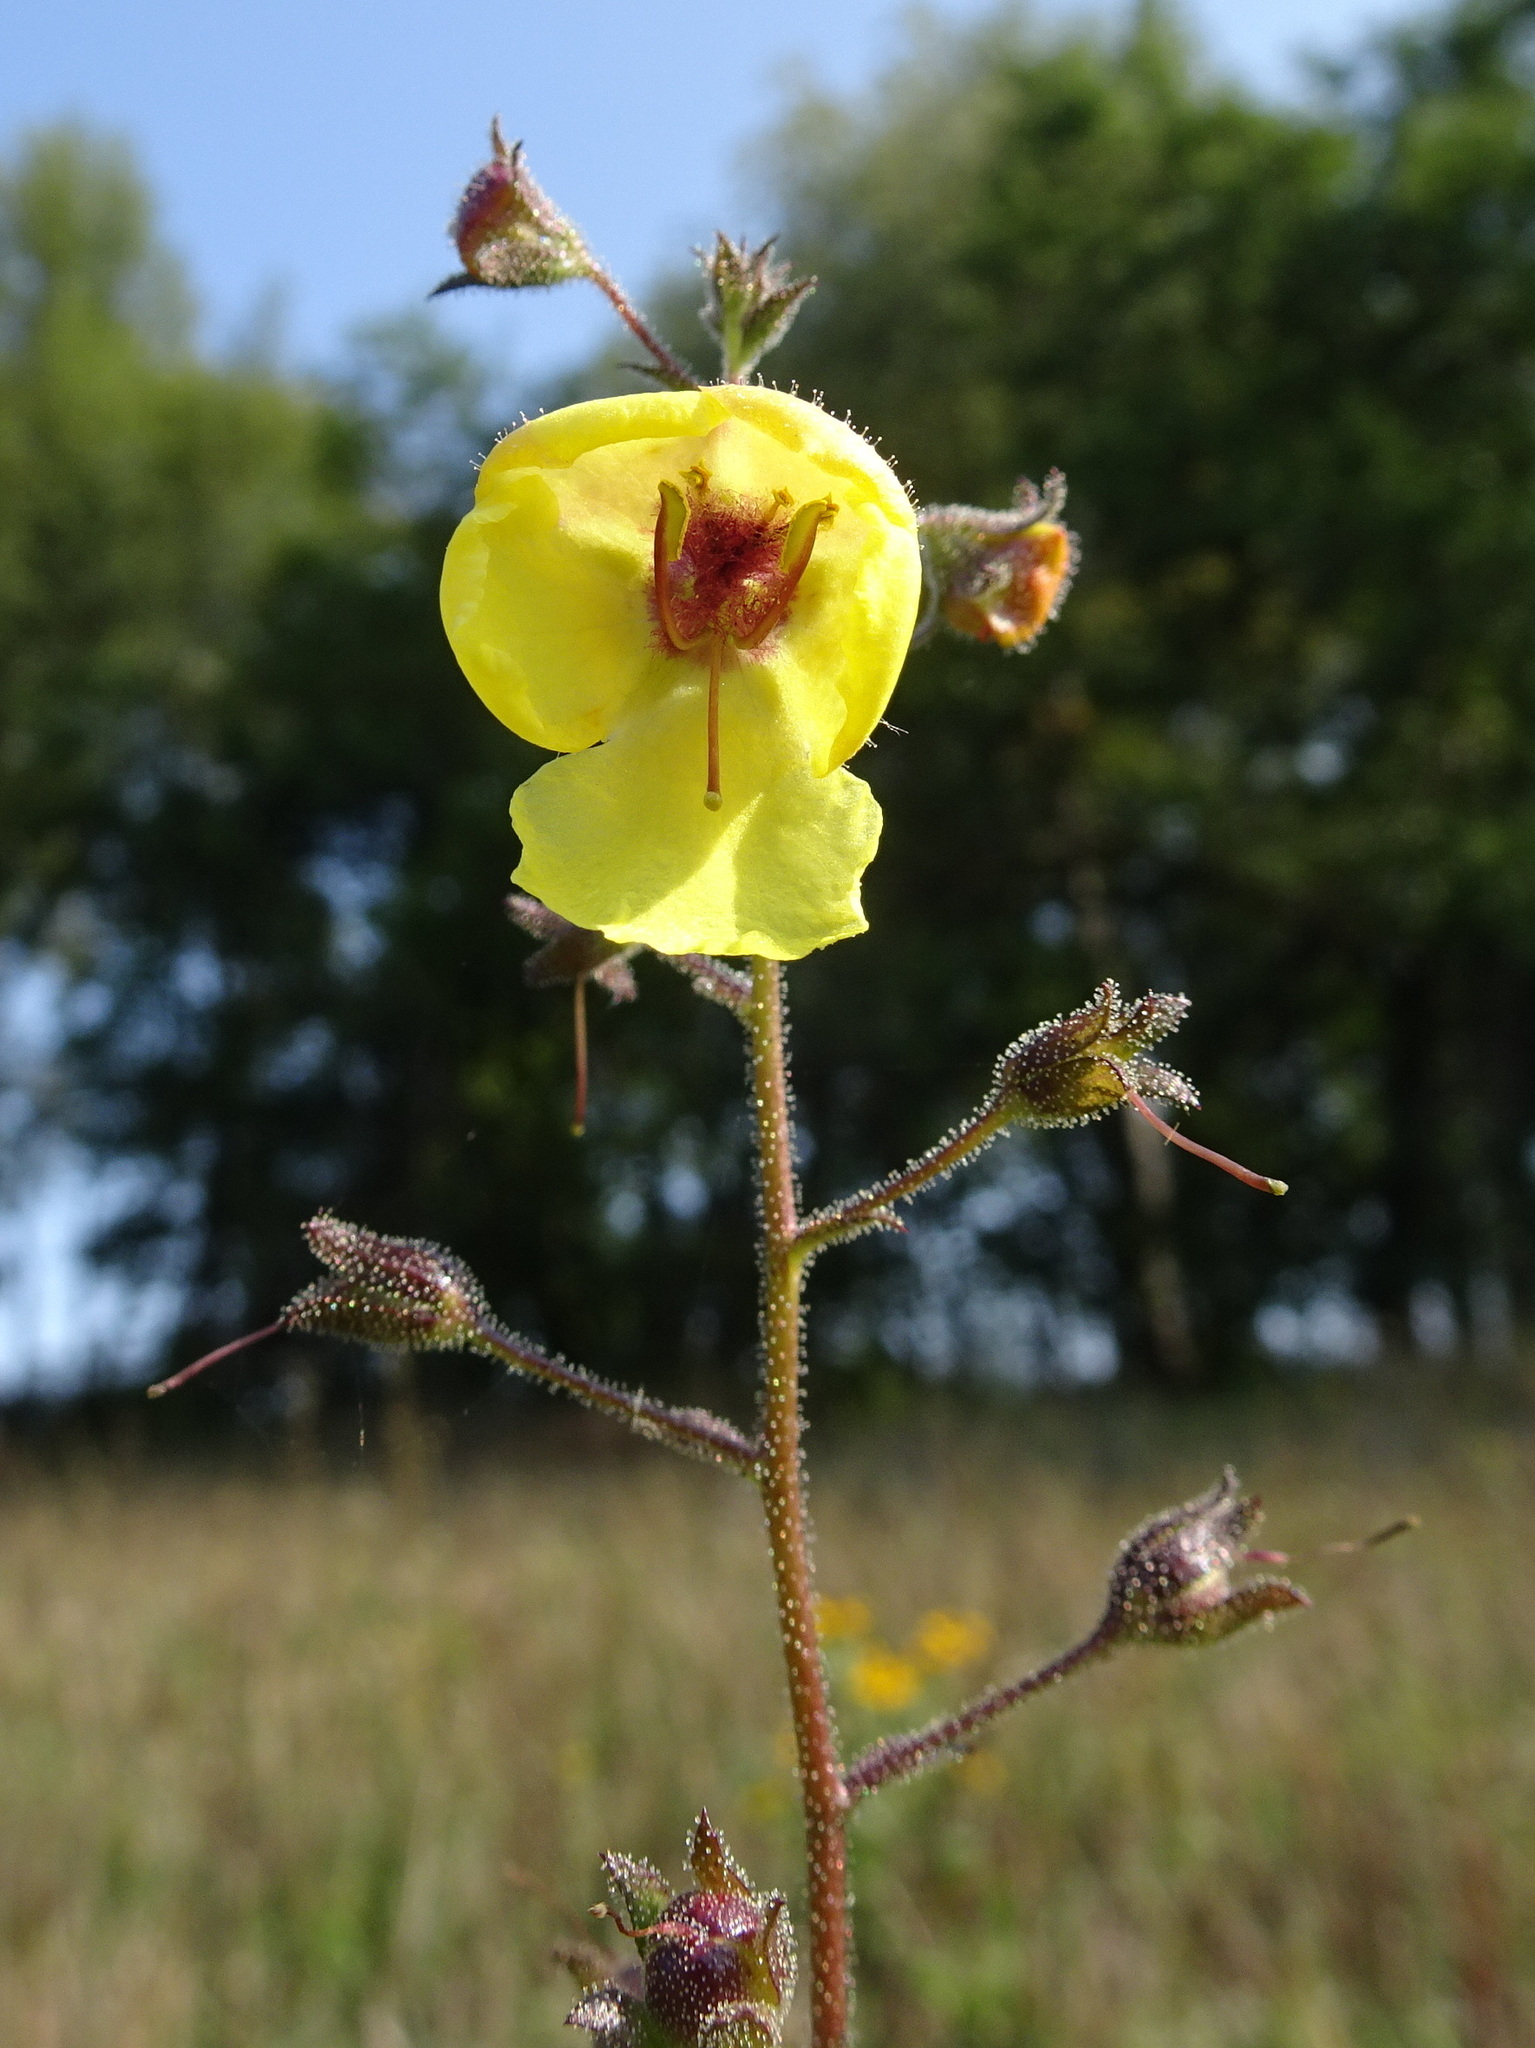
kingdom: Plantae
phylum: Tracheophyta
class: Magnoliopsida
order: Lamiales
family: Scrophulariaceae
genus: Verbascum
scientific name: Verbascum blattaria
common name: Moth mullein
